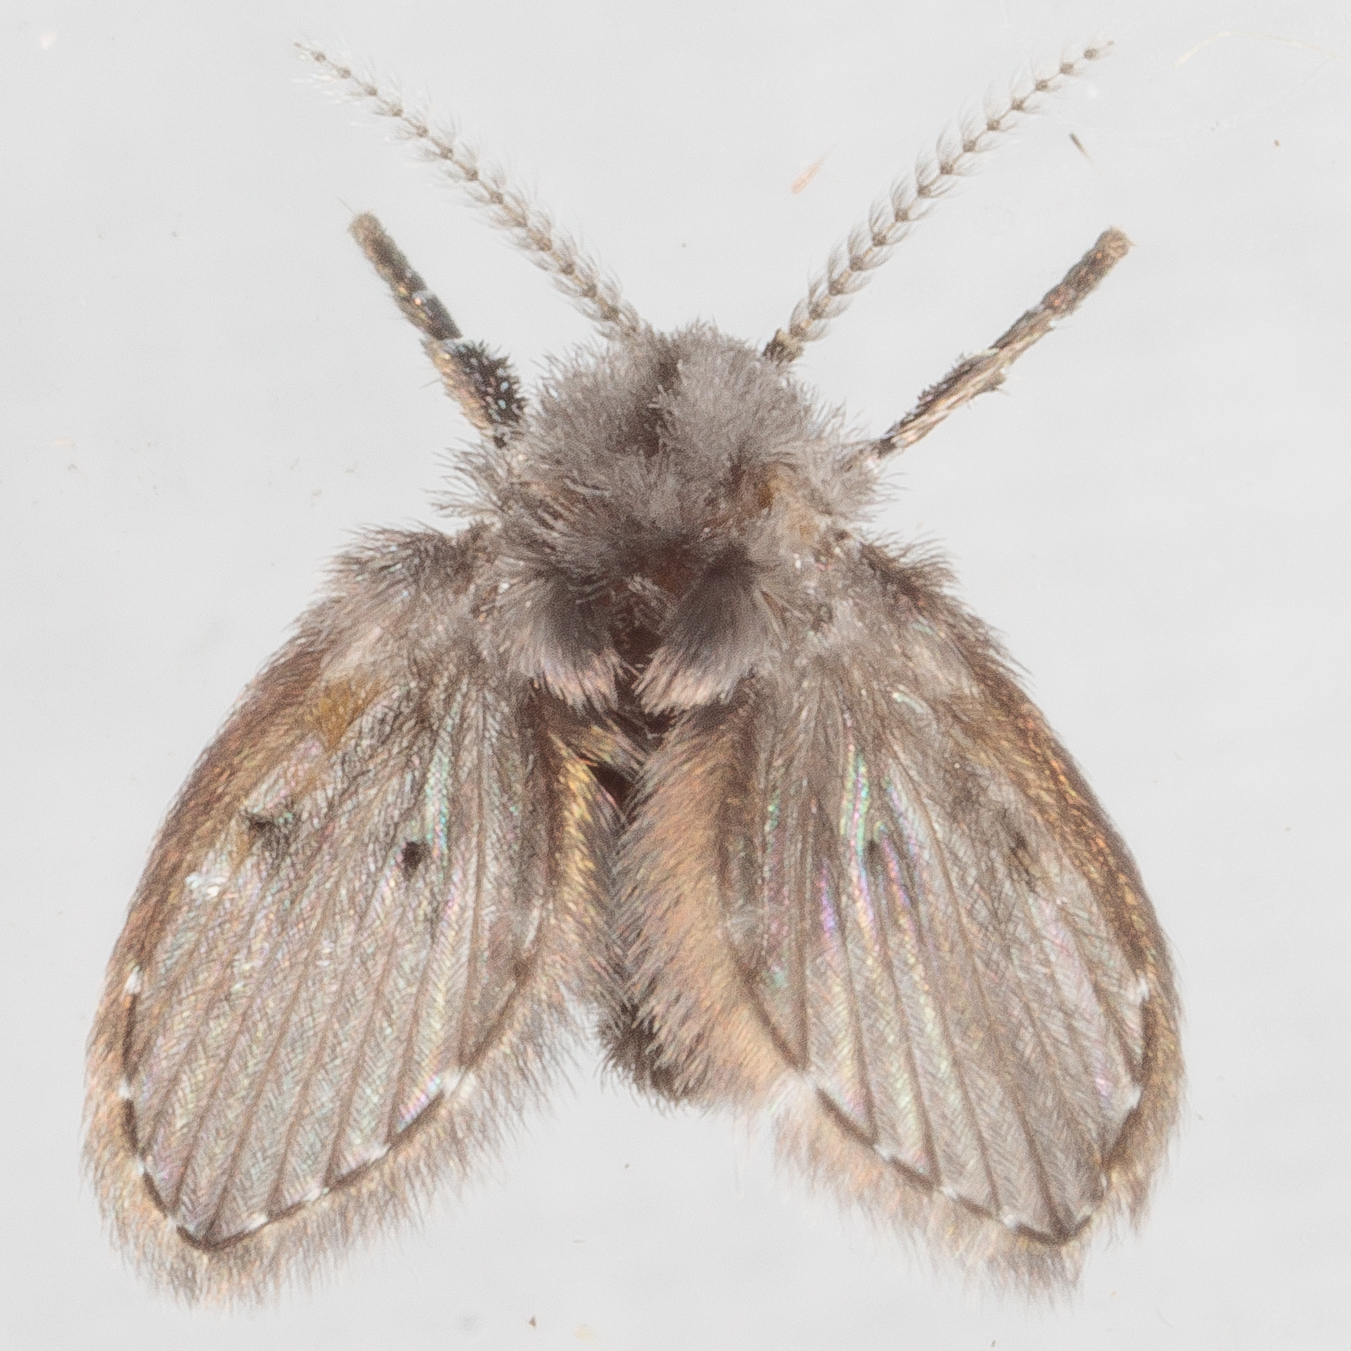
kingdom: Animalia
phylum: Arthropoda
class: Insecta
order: Diptera
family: Psychodidae
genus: Clogmia
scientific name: Clogmia albipunctatus
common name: White-spotted moth fly
